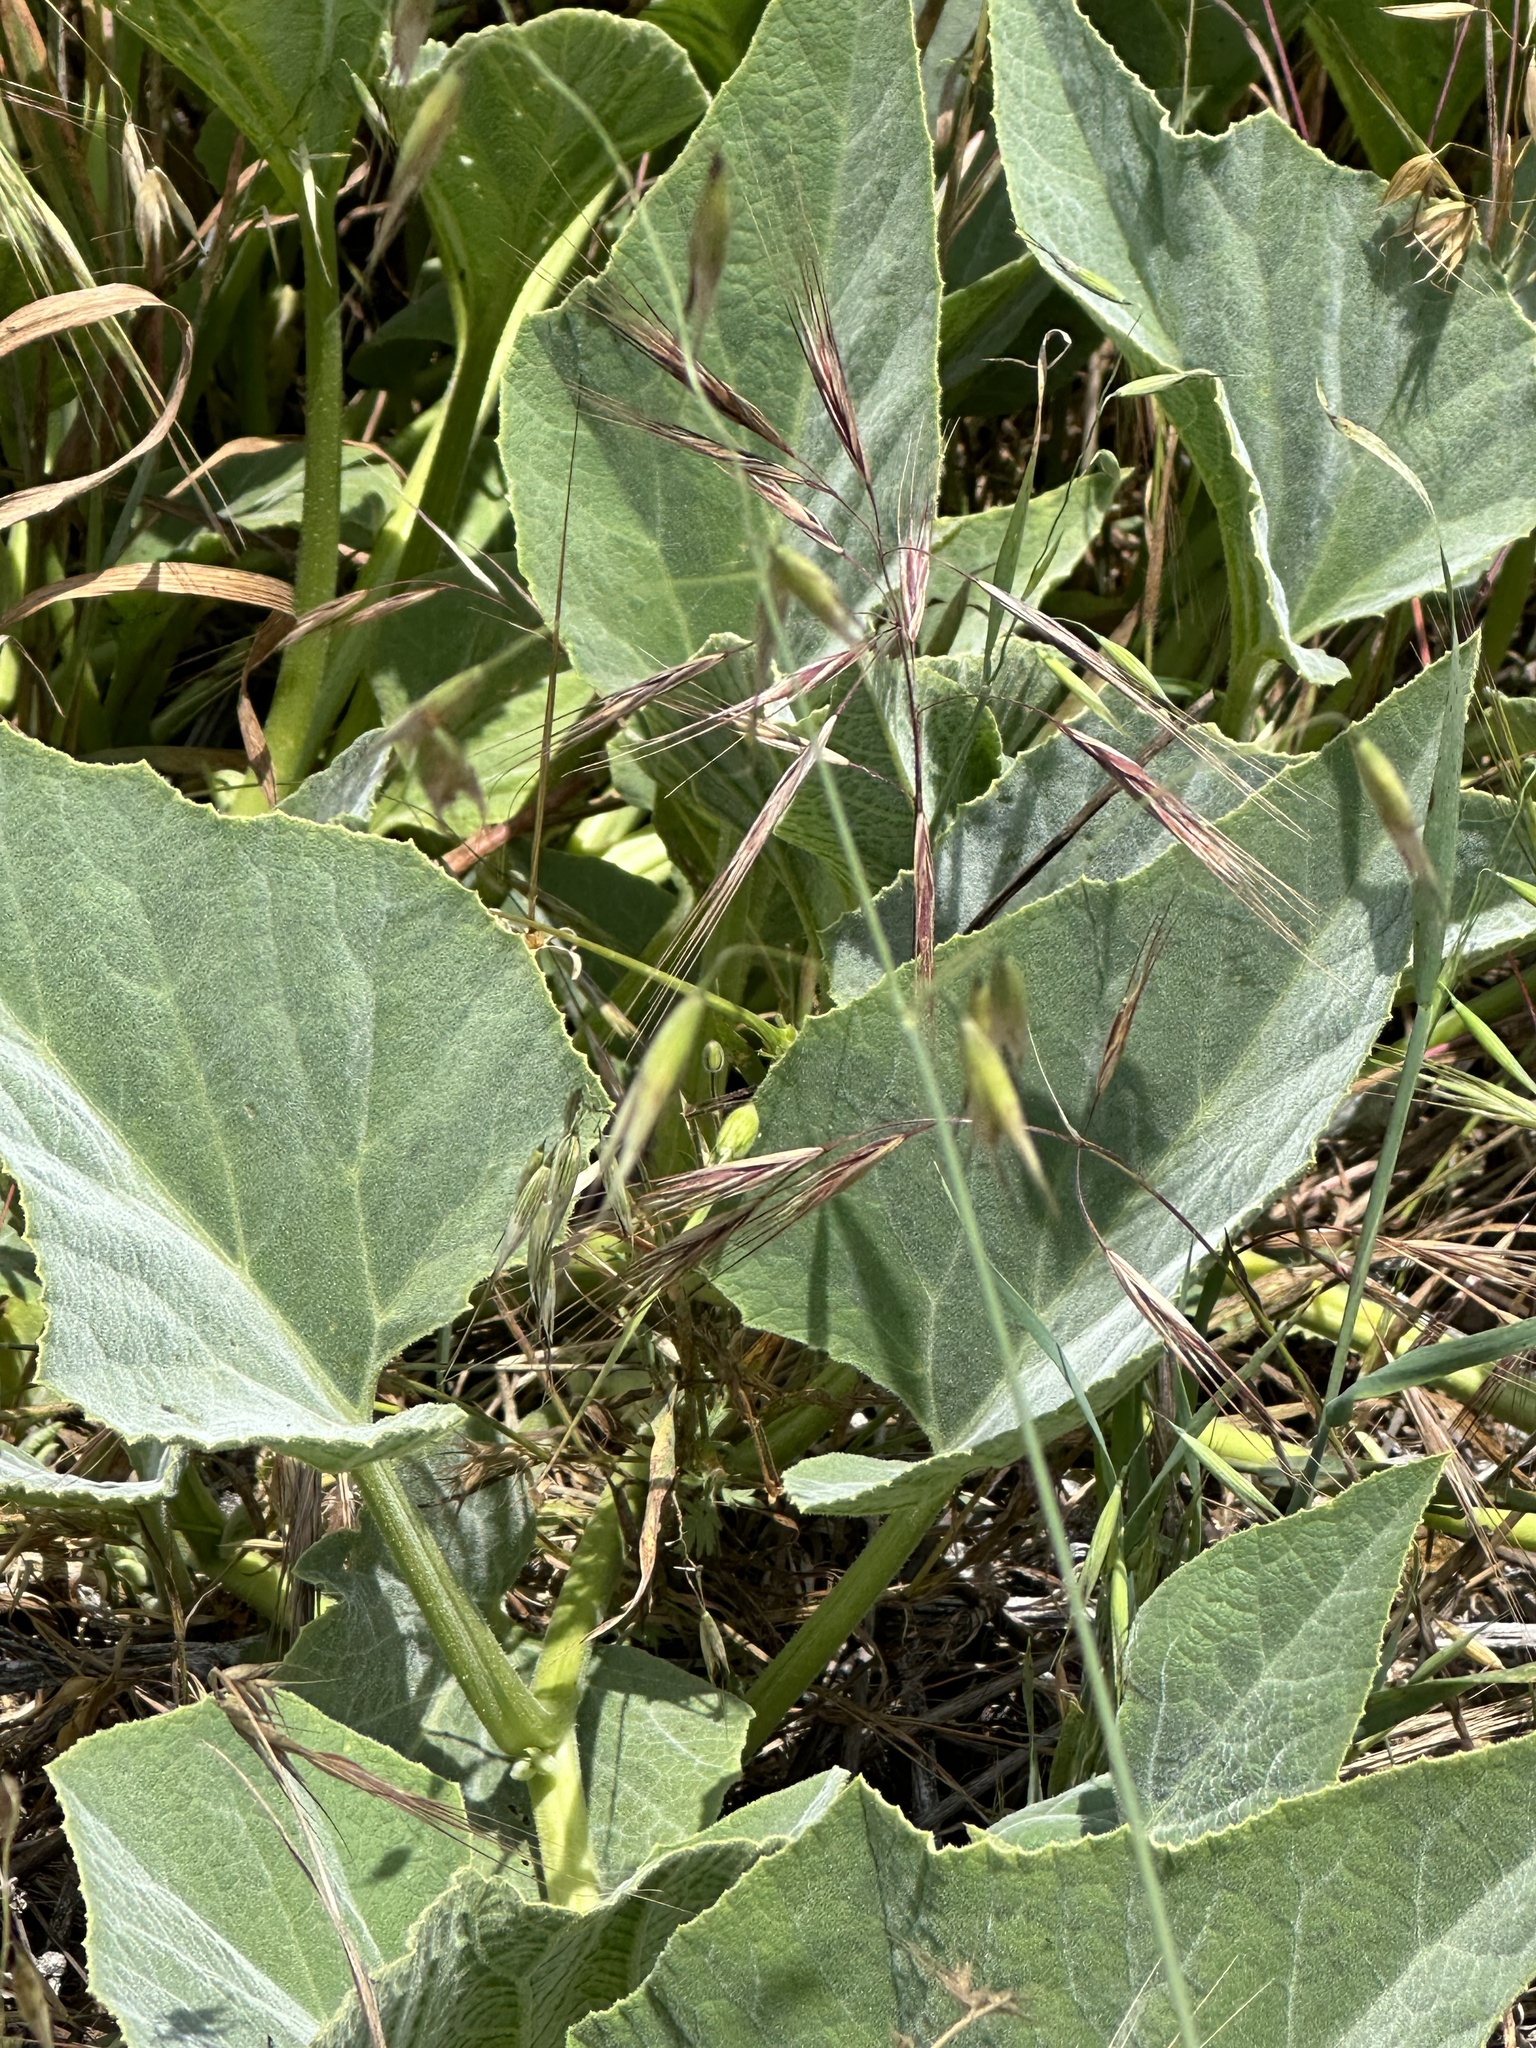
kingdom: Plantae
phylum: Tracheophyta
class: Magnoliopsida
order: Cucurbitales
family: Cucurbitaceae
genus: Cucurbita
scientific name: Cucurbita foetidissima
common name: Buffalo gourd
